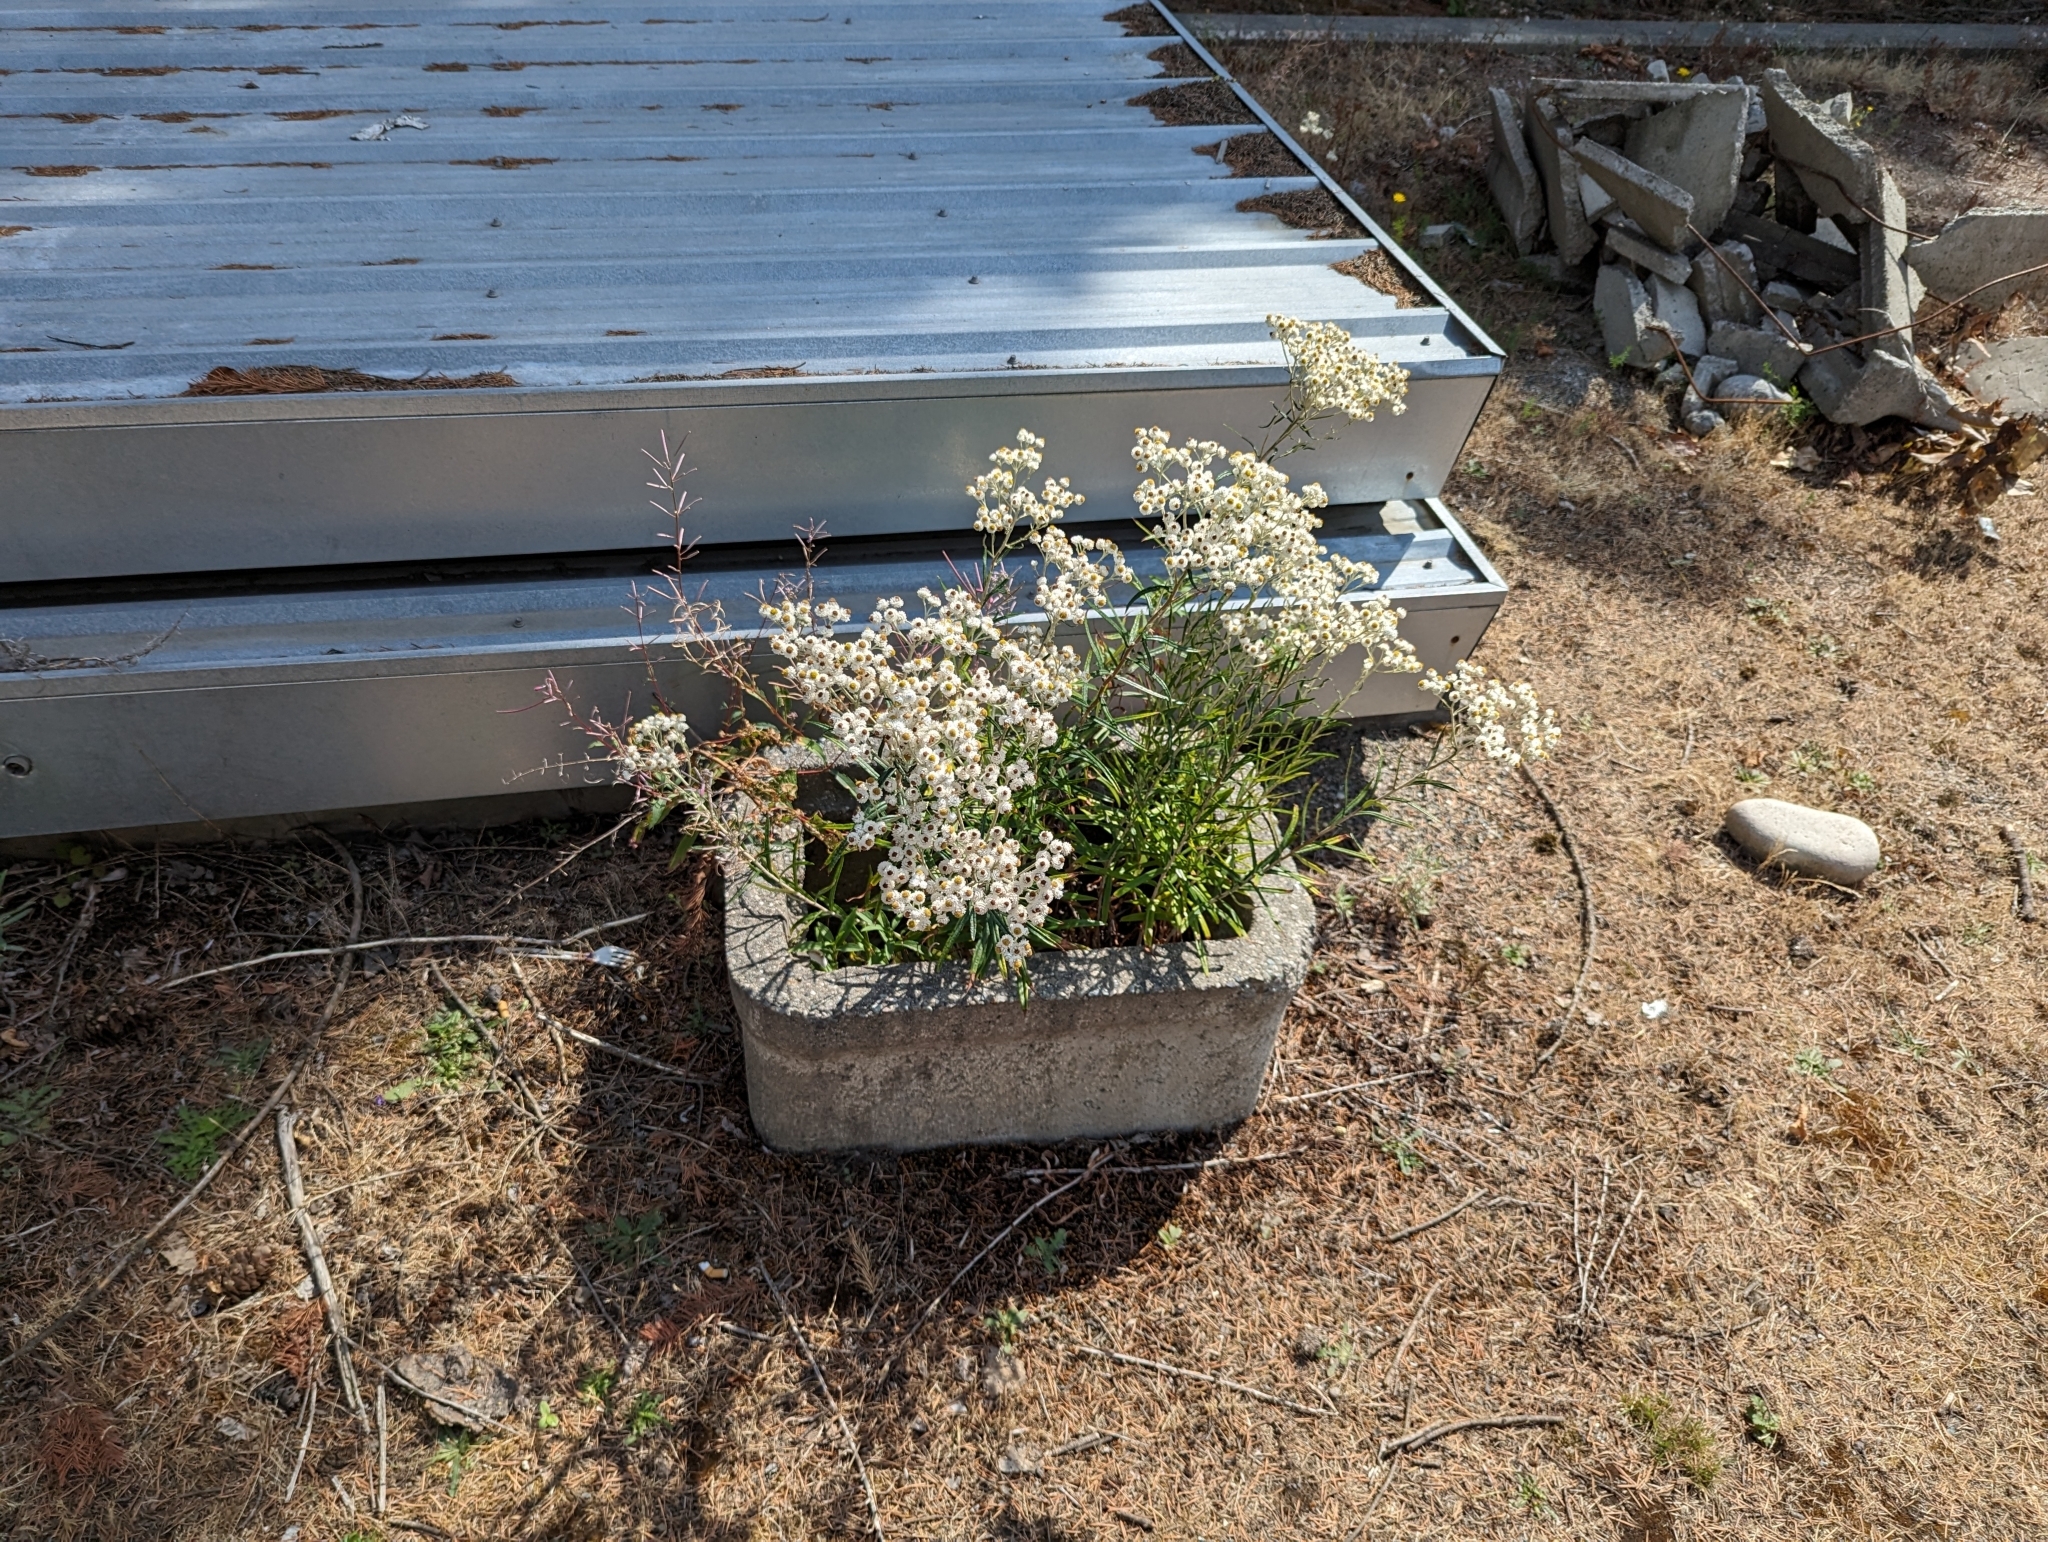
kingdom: Plantae
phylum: Tracheophyta
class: Magnoliopsida
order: Asterales
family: Asteraceae
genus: Anaphalis
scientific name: Anaphalis margaritacea
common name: Pearly everlasting
